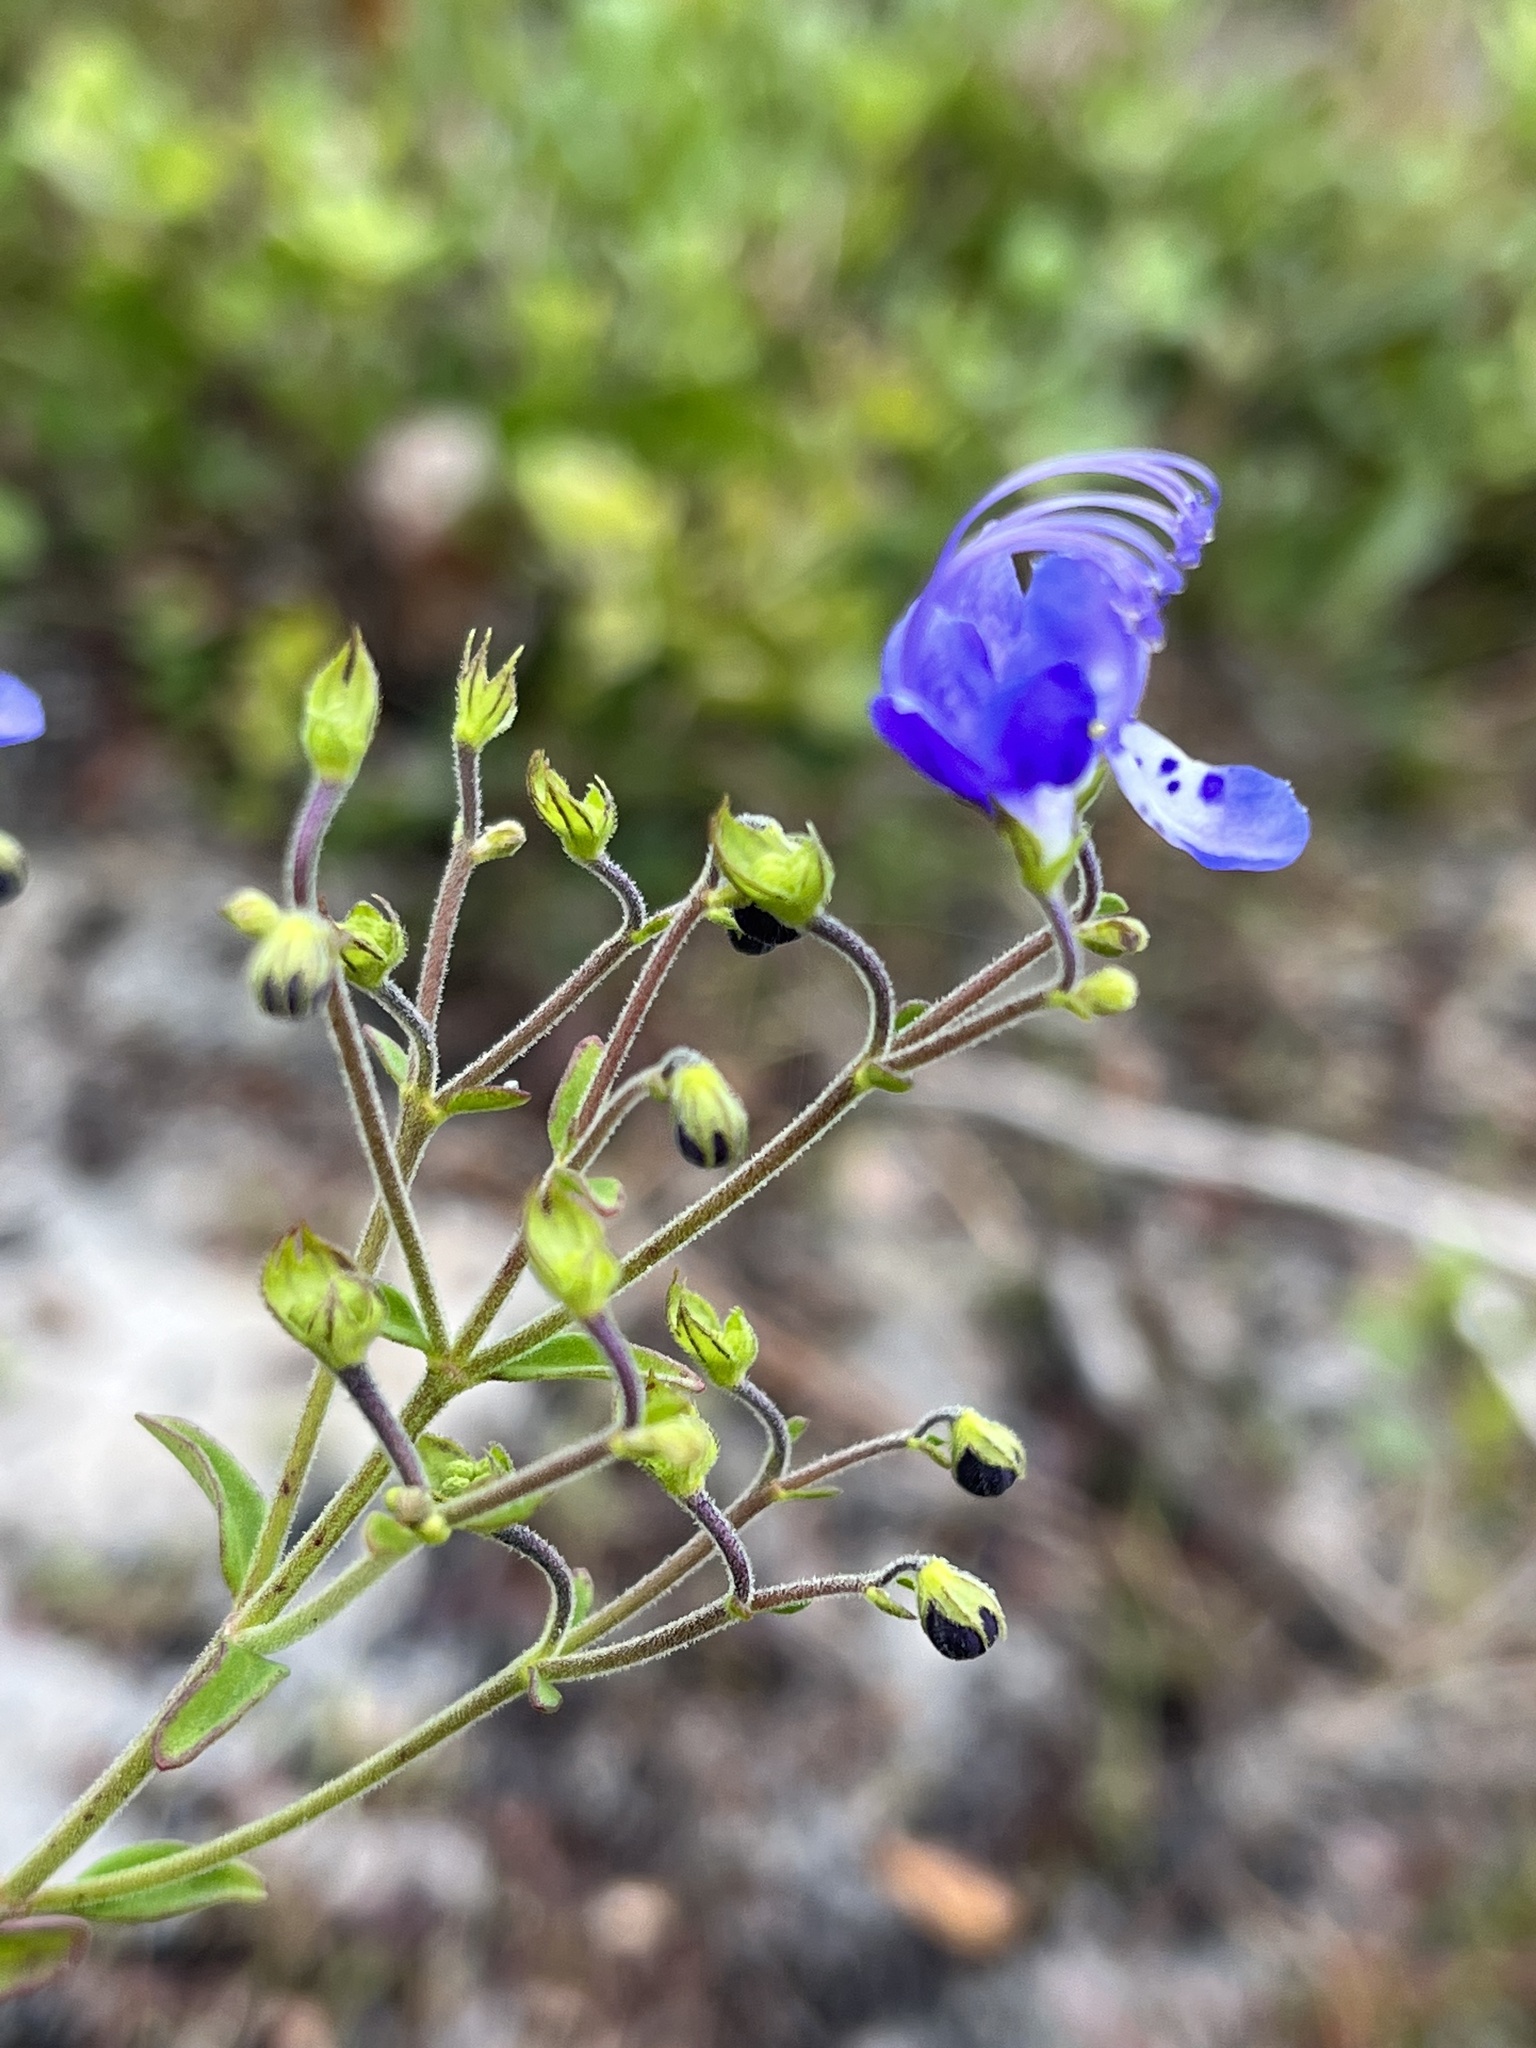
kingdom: Plantae
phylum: Tracheophyta
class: Magnoliopsida
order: Lamiales
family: Lamiaceae
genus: Trichostema
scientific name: Trichostema gracile
